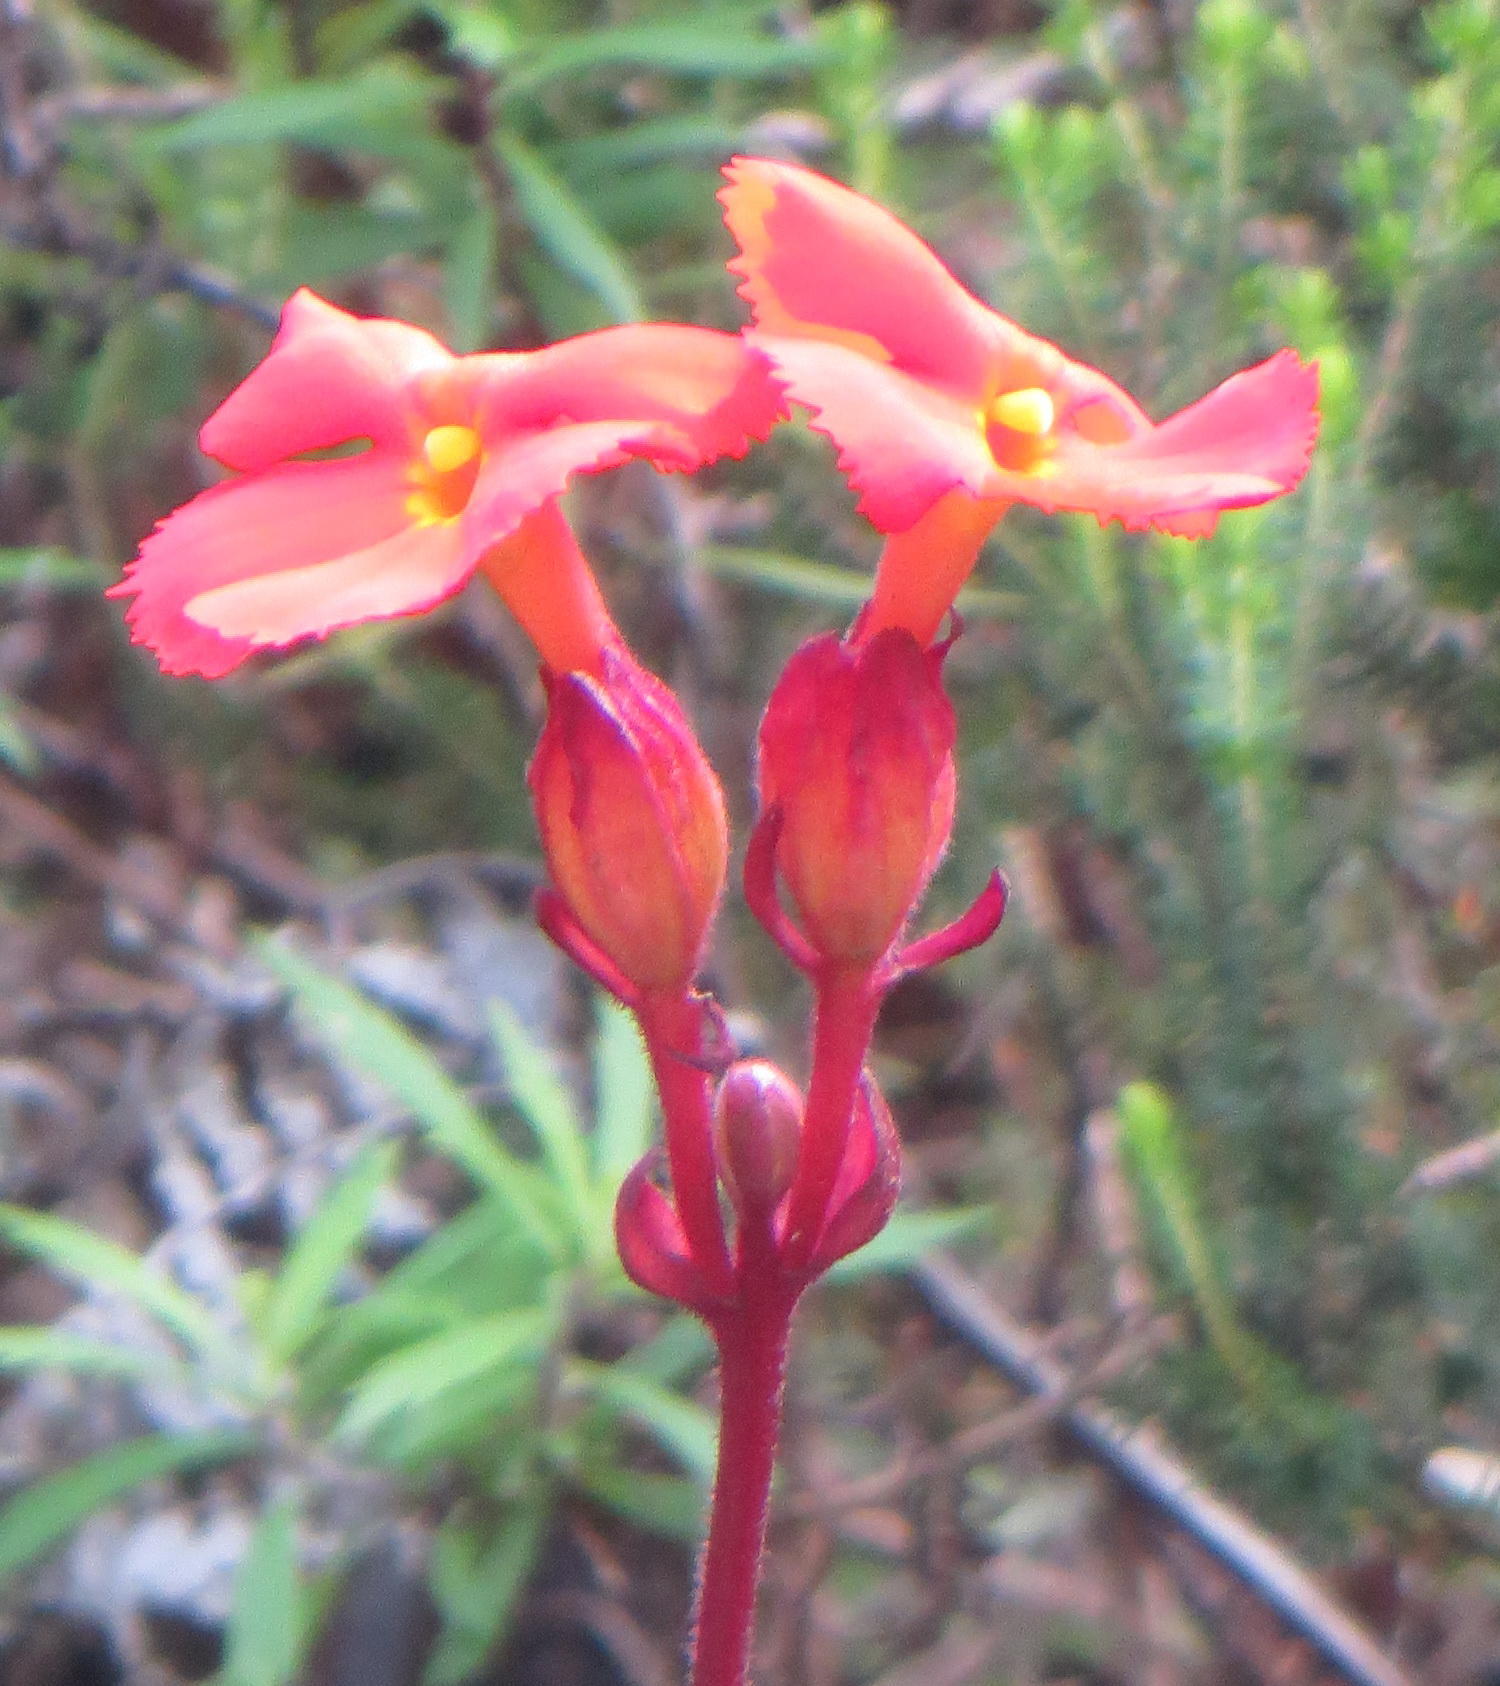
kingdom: Plantae
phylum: Tracheophyta
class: Magnoliopsida
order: Lamiales
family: Orobanchaceae
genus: Harveya
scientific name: Harveya stenosiphon
